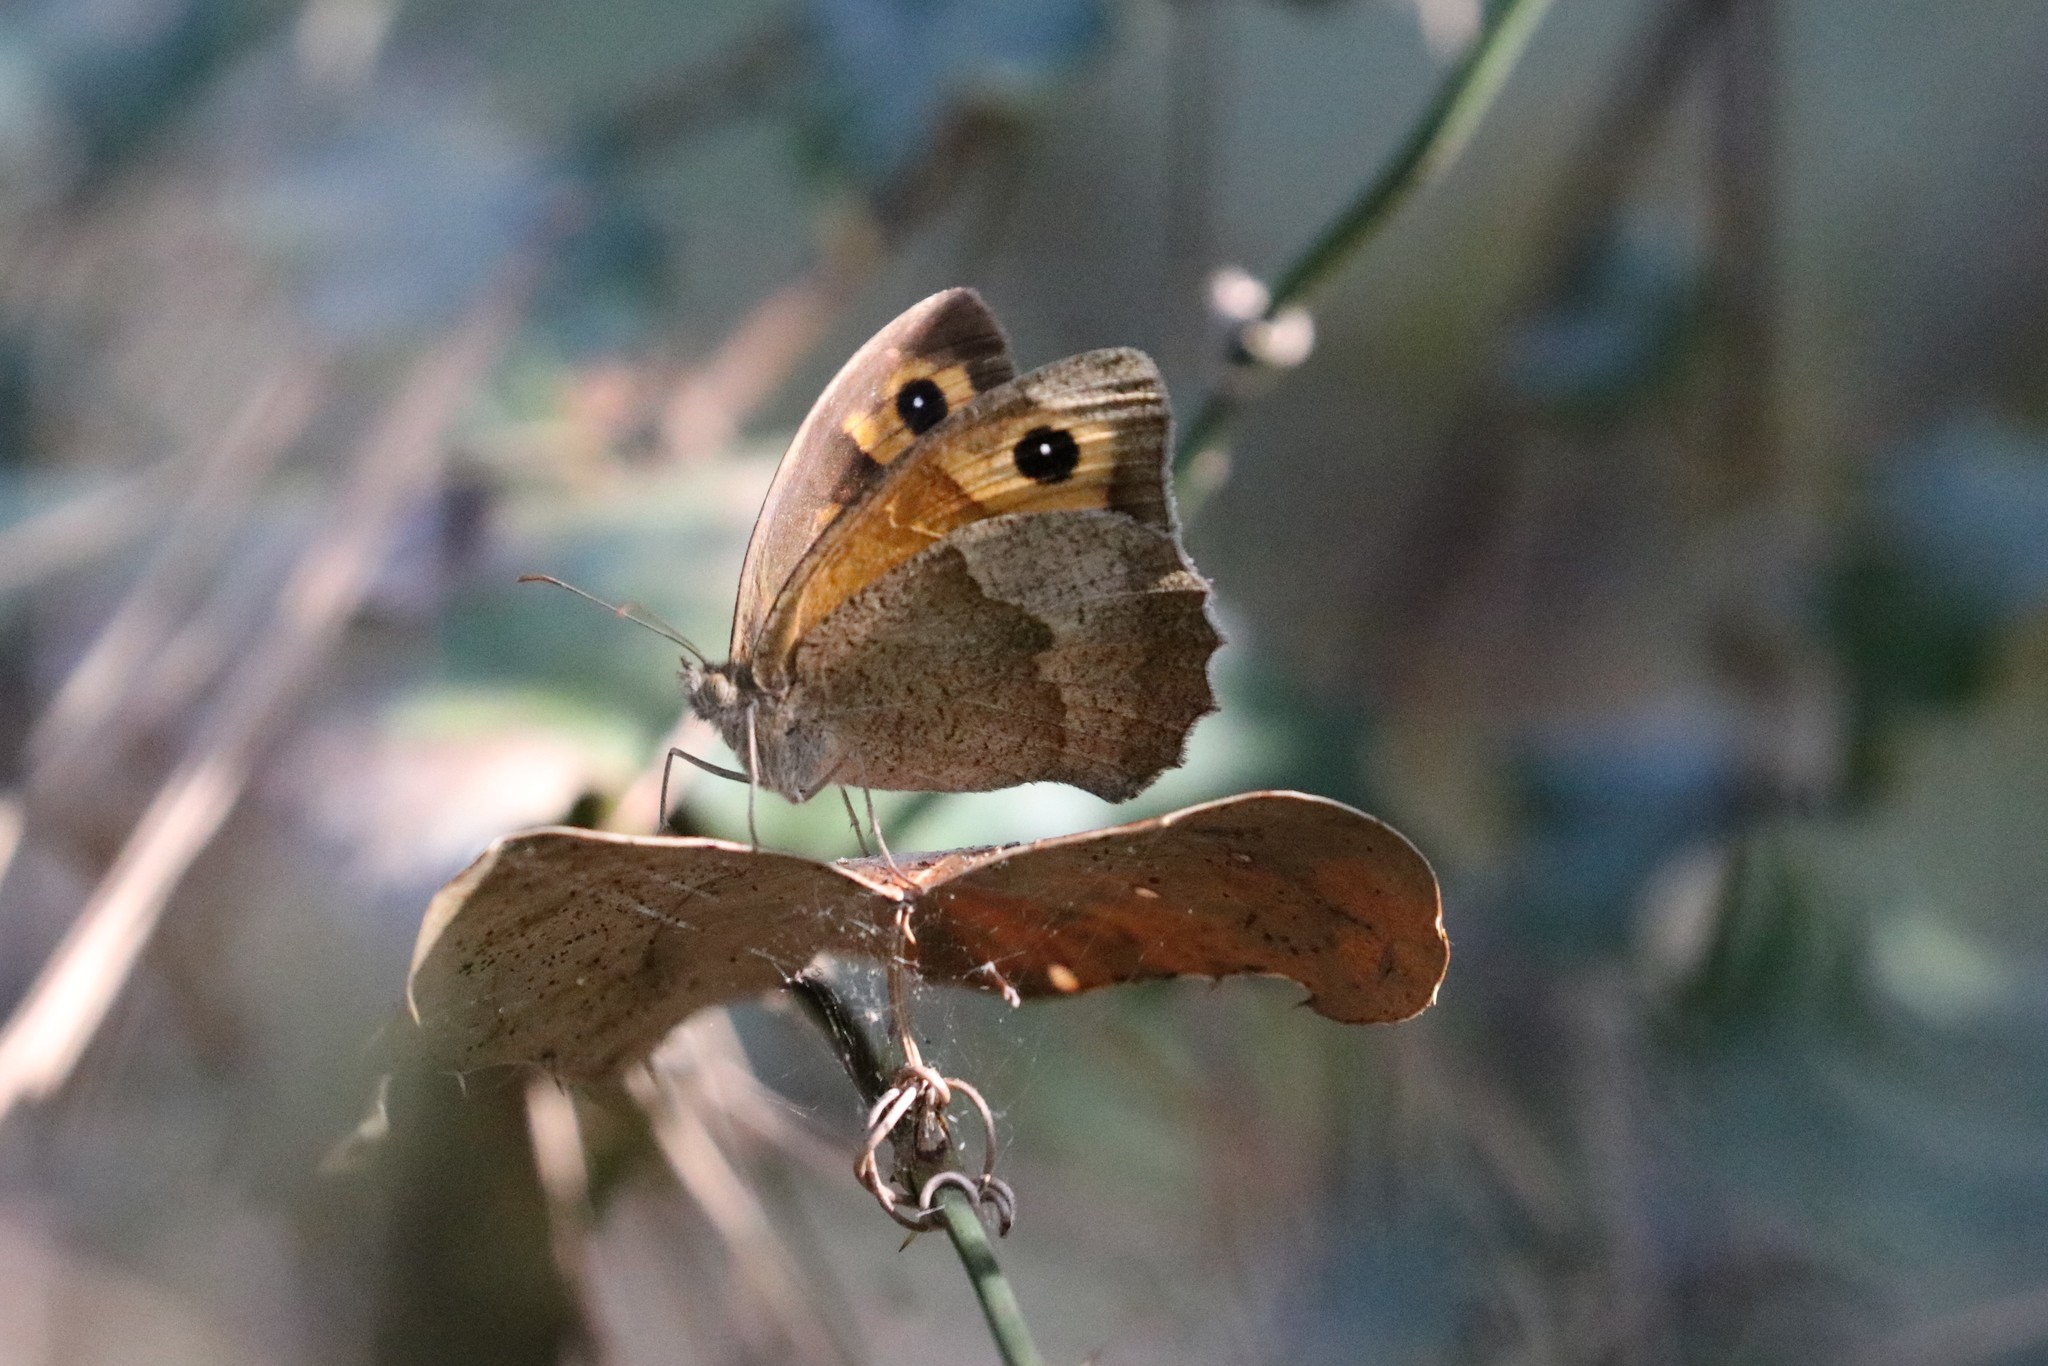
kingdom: Animalia
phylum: Arthropoda
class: Insecta
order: Lepidoptera
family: Nymphalidae
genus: Maniola
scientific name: Maniola jurtina
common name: Meadow brown
